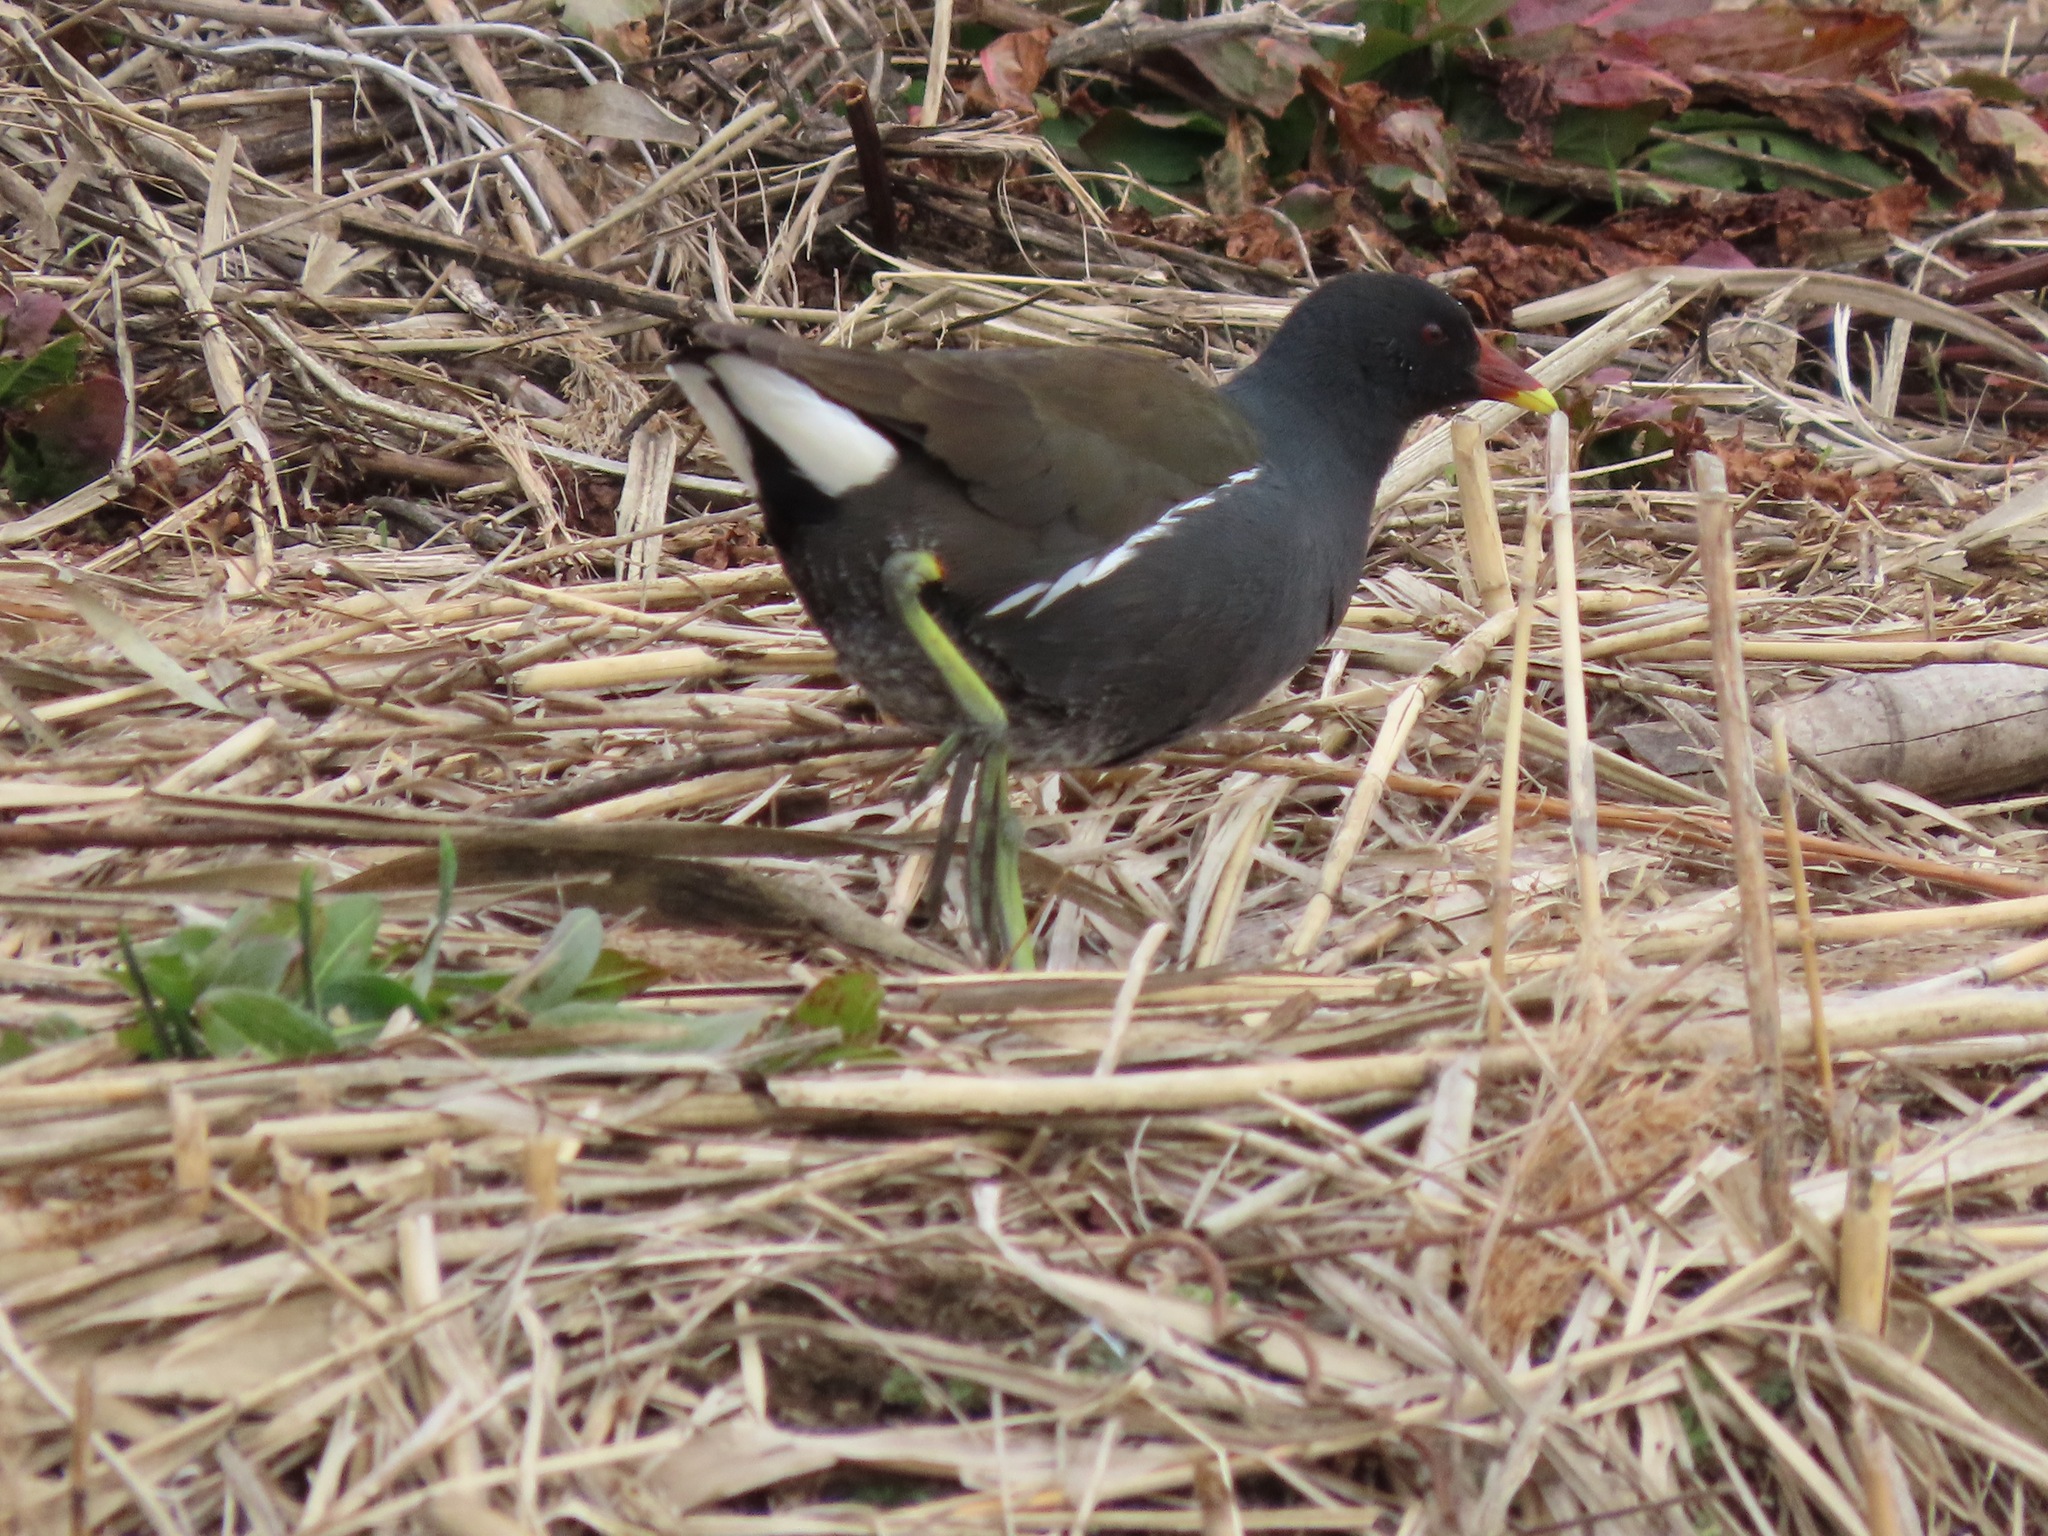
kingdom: Animalia
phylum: Chordata
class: Aves
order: Gruiformes
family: Rallidae
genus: Gallinula
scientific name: Gallinula chloropus
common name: Common moorhen
